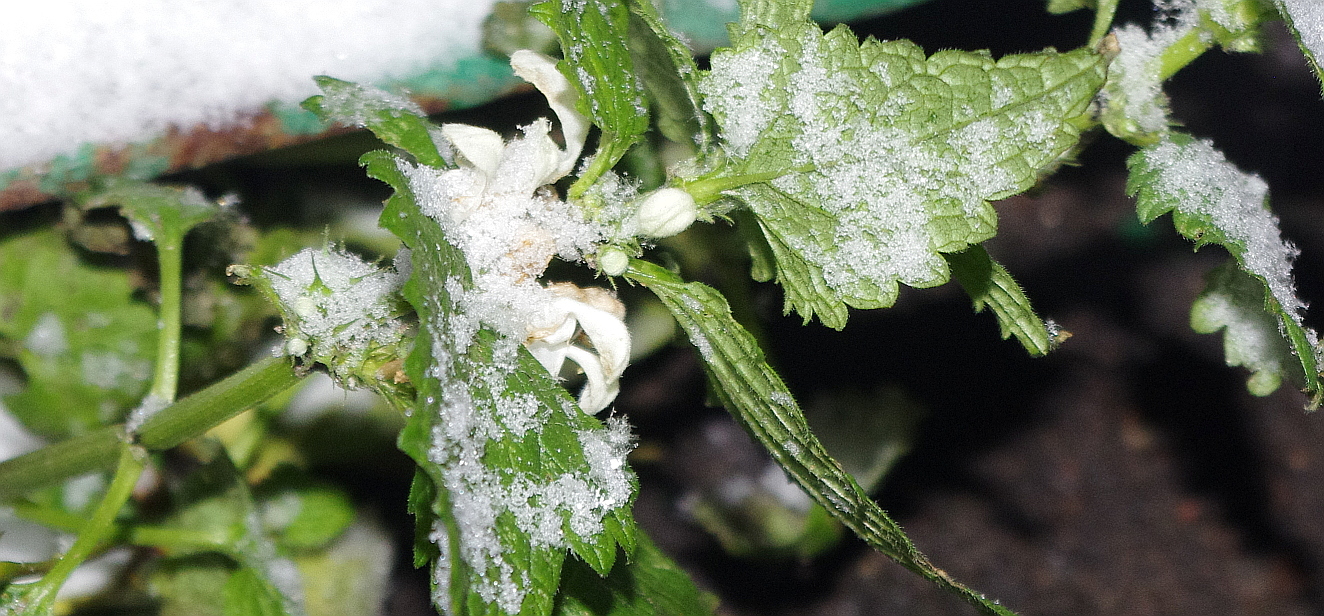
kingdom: Plantae
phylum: Tracheophyta
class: Magnoliopsida
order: Lamiales
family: Lamiaceae
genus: Lamium
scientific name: Lamium album
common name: White dead-nettle
